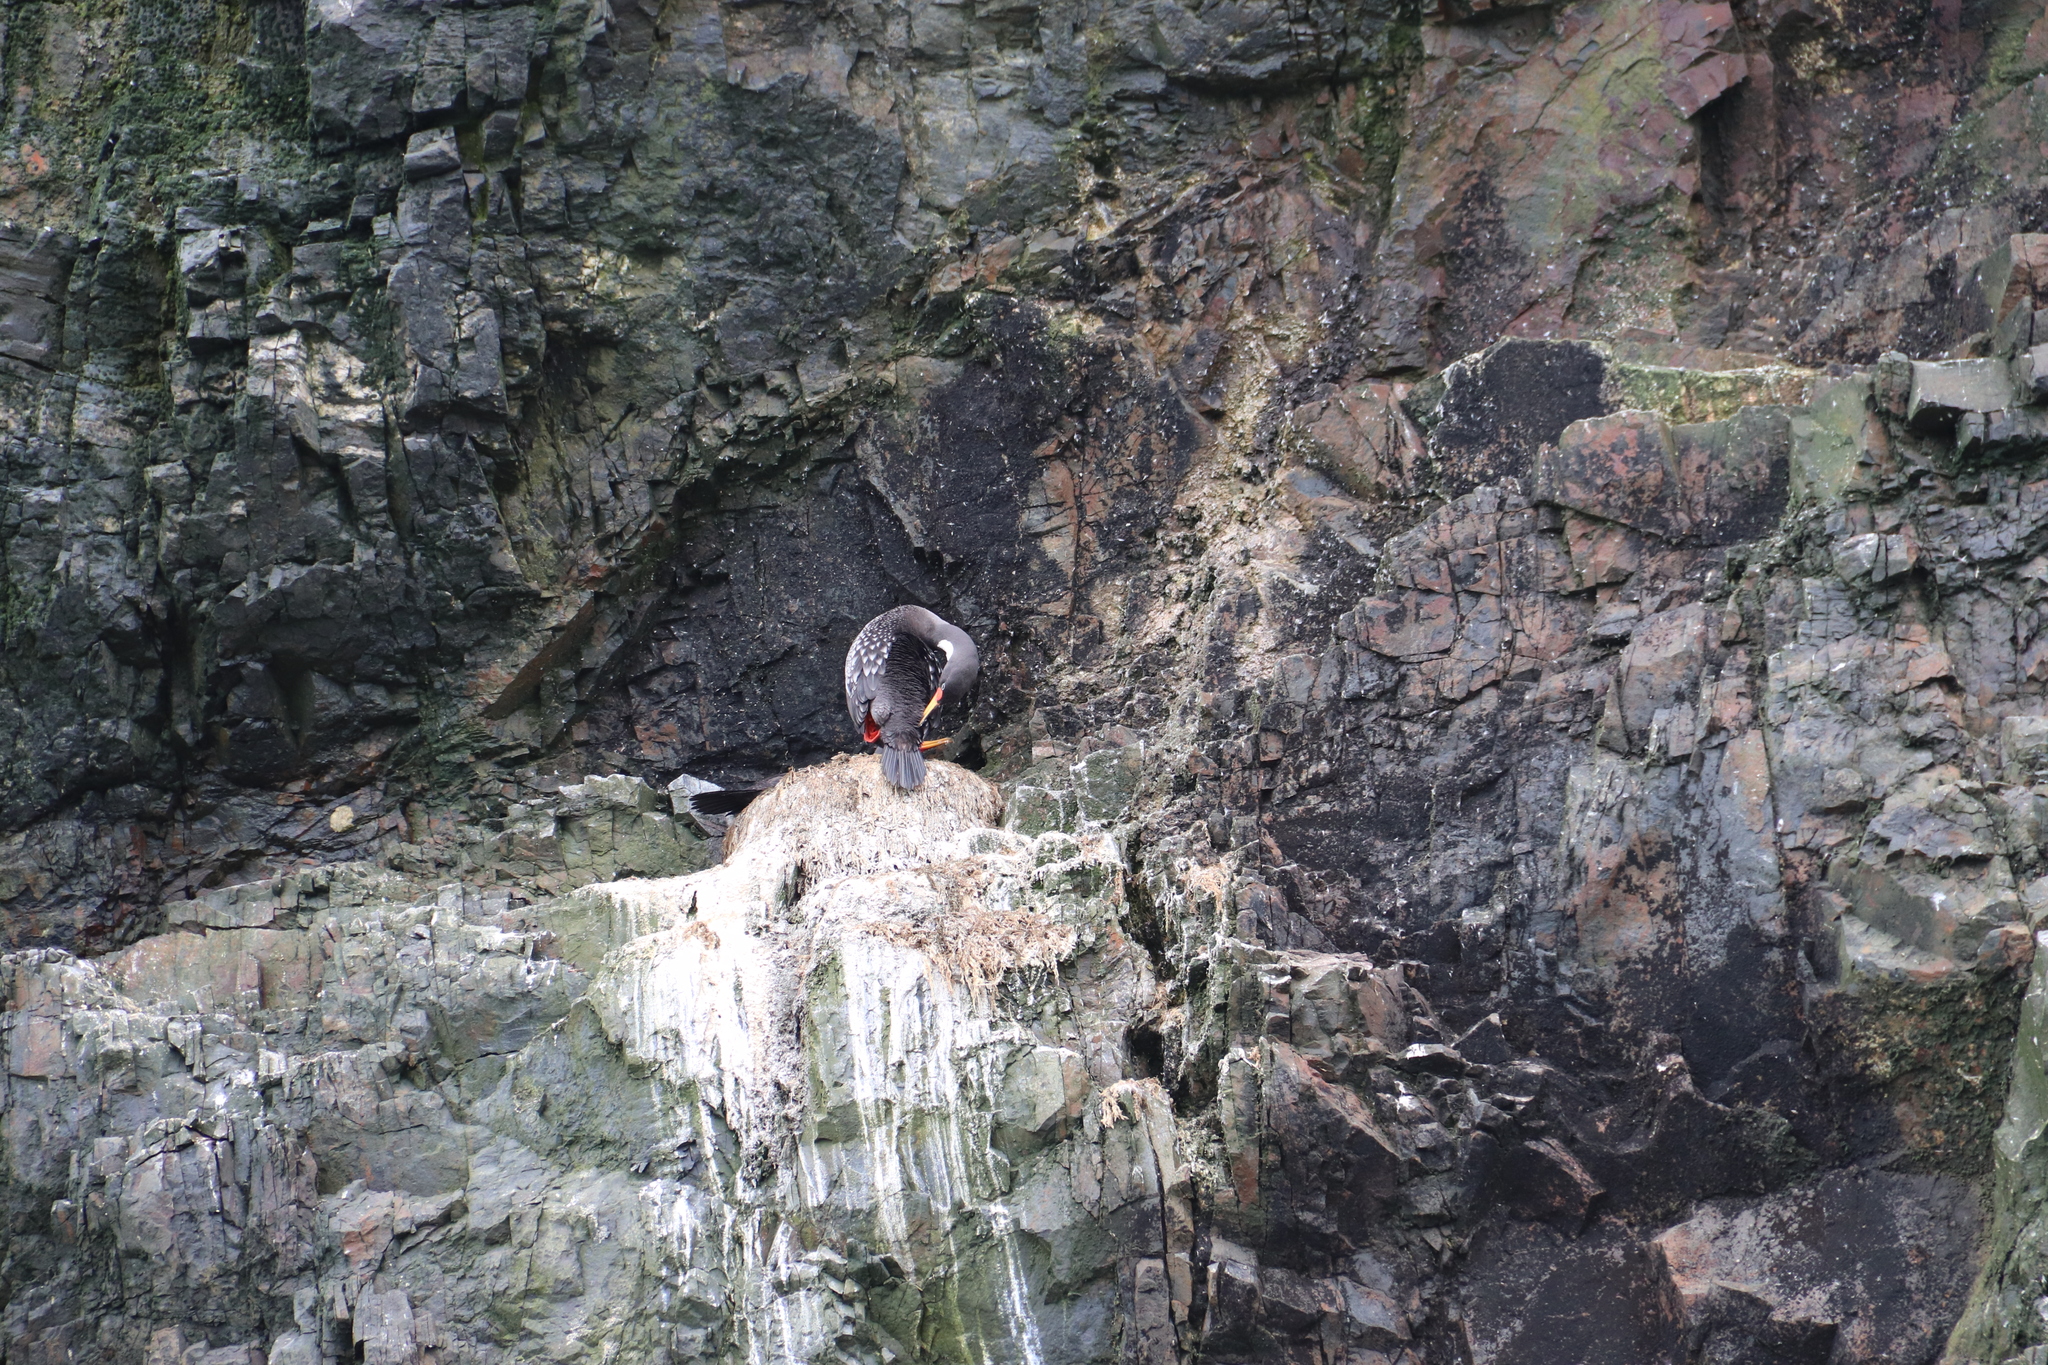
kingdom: Animalia
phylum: Chordata
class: Aves
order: Suliformes
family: Phalacrocoracidae
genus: Phalacrocorax
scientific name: Phalacrocorax gaimardi
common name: Red-legged cormorant
